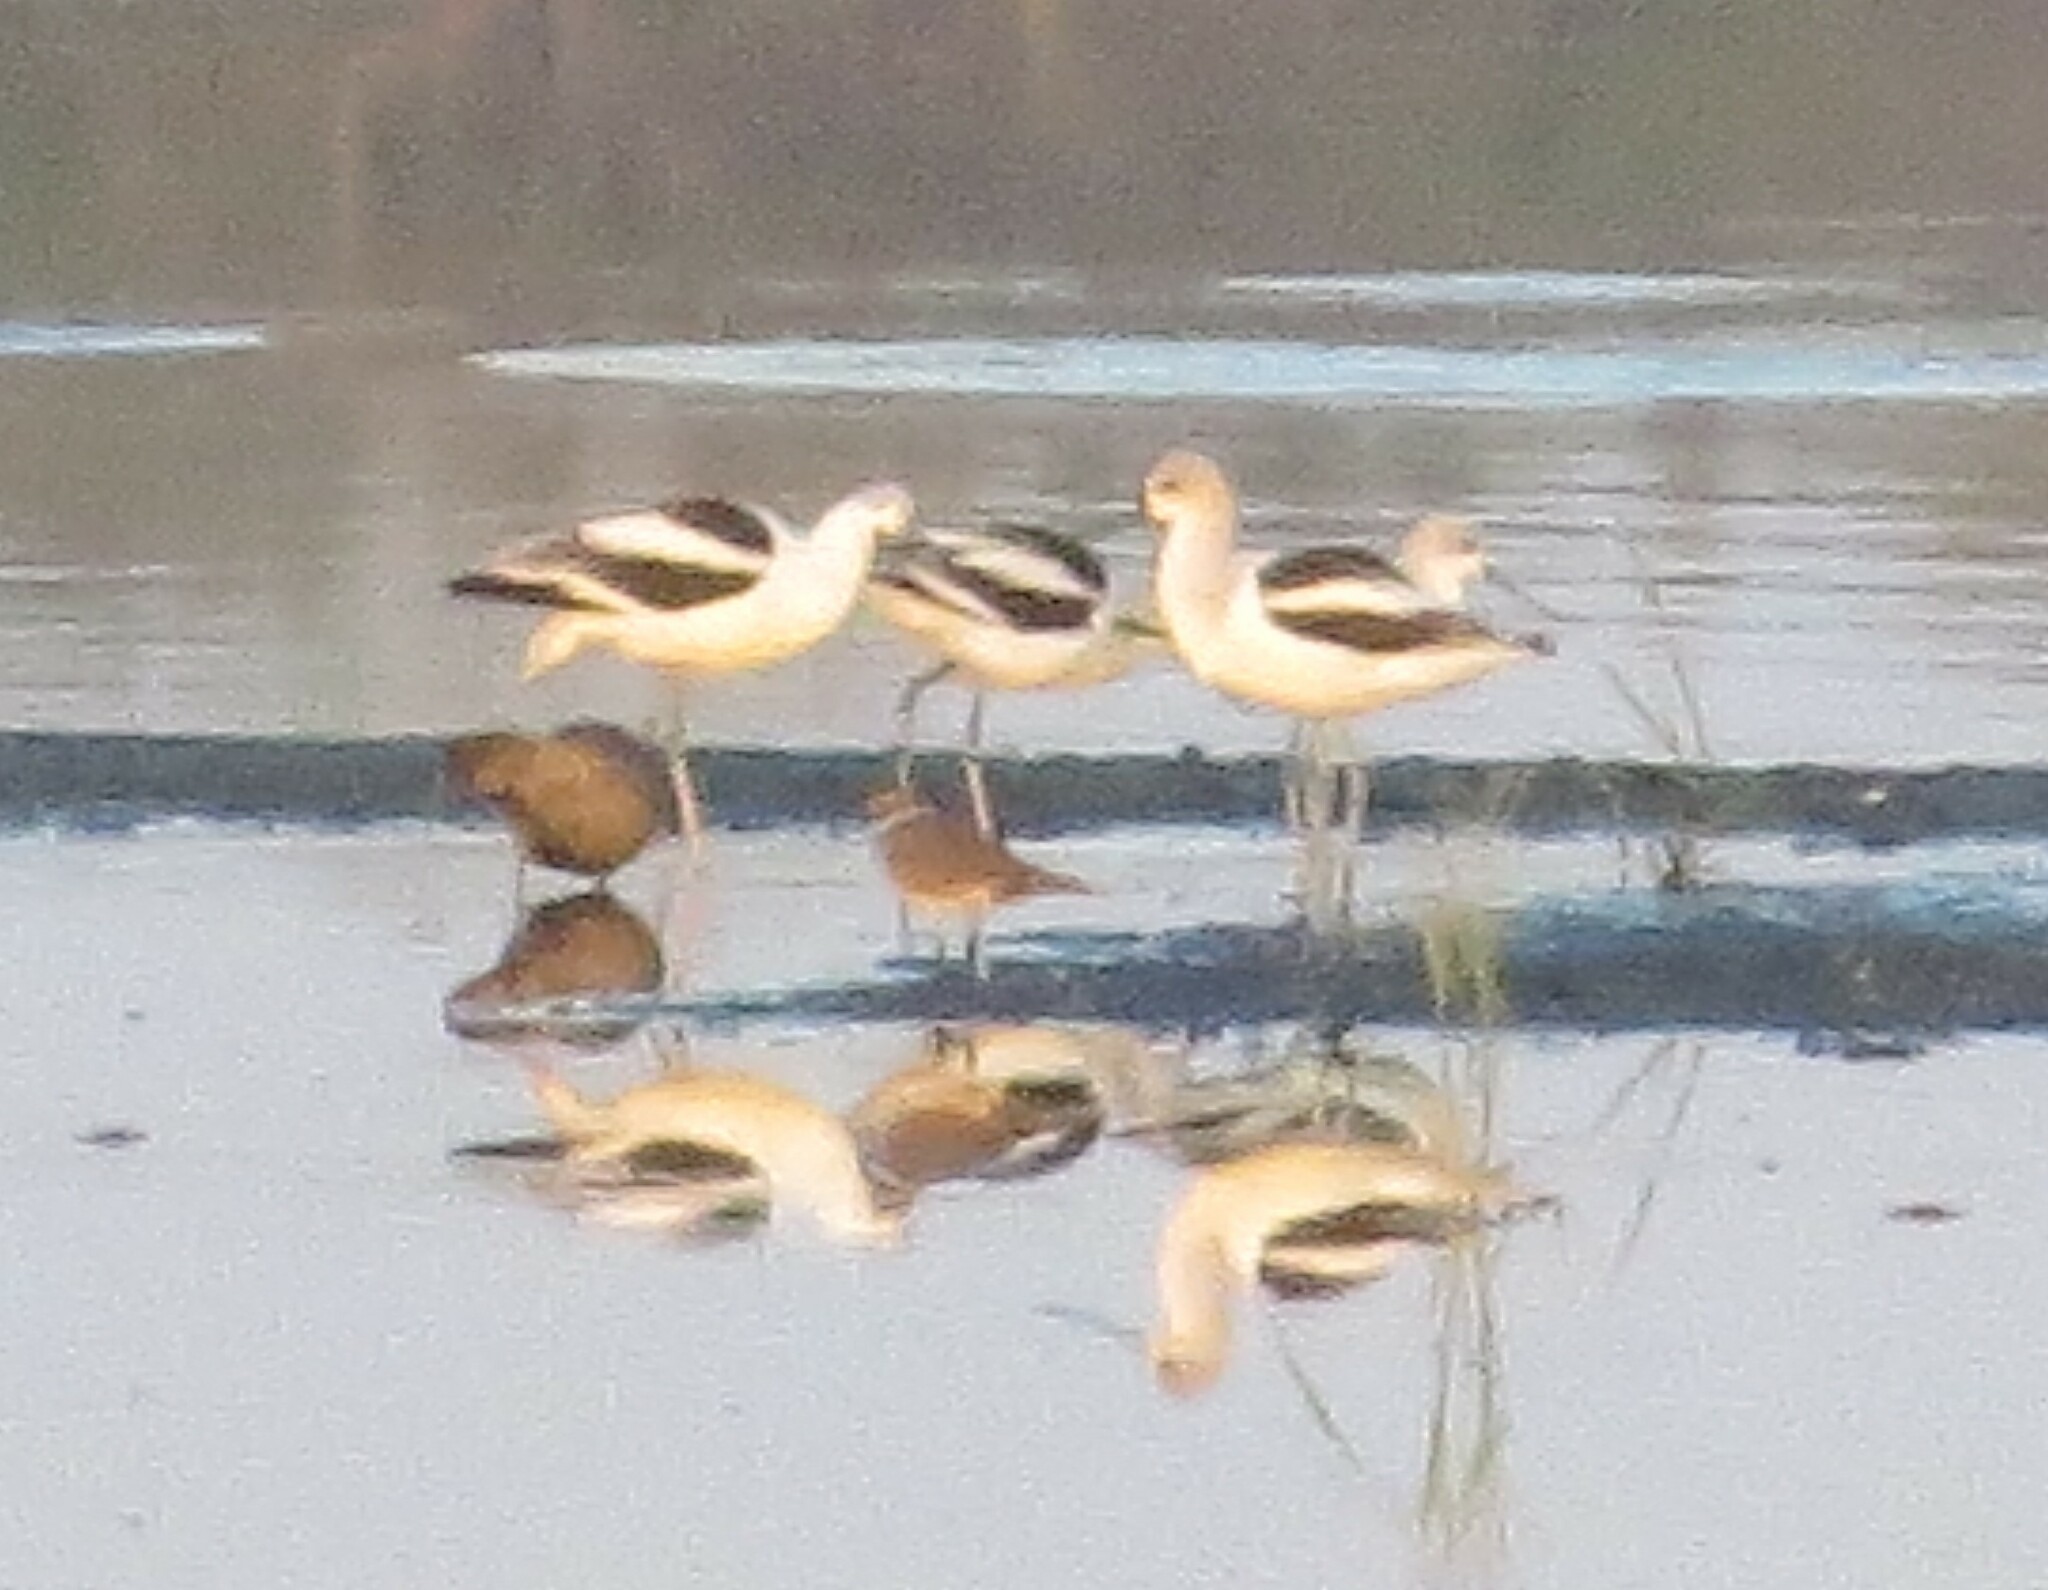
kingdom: Animalia
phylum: Chordata
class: Aves
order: Charadriiformes
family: Recurvirostridae
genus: Recurvirostra
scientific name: Recurvirostra americana
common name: American avocet
